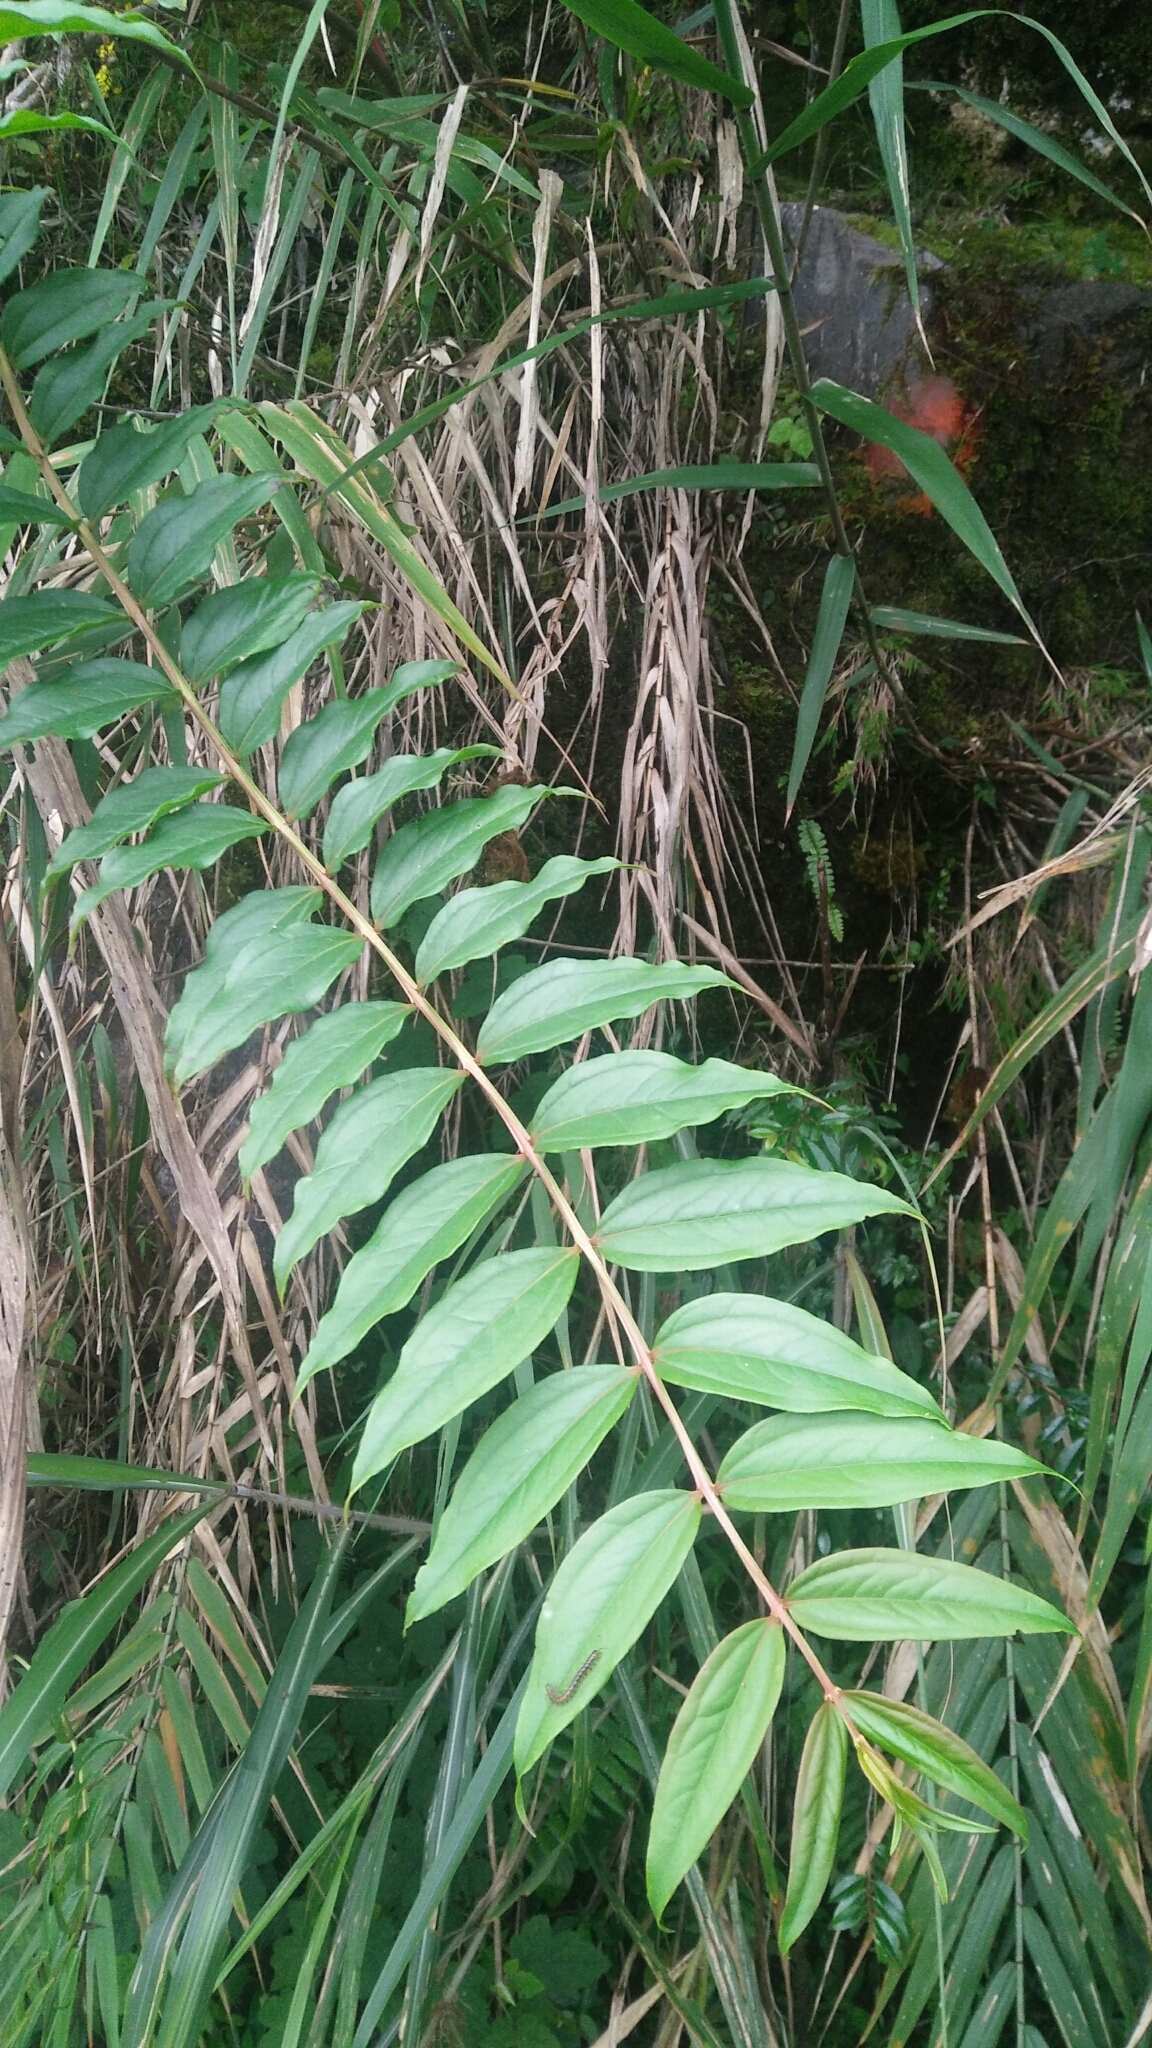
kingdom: Plantae
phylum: Tracheophyta
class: Magnoliopsida
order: Cucurbitales
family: Coriariaceae
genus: Coriaria
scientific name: Coriaria japonica
